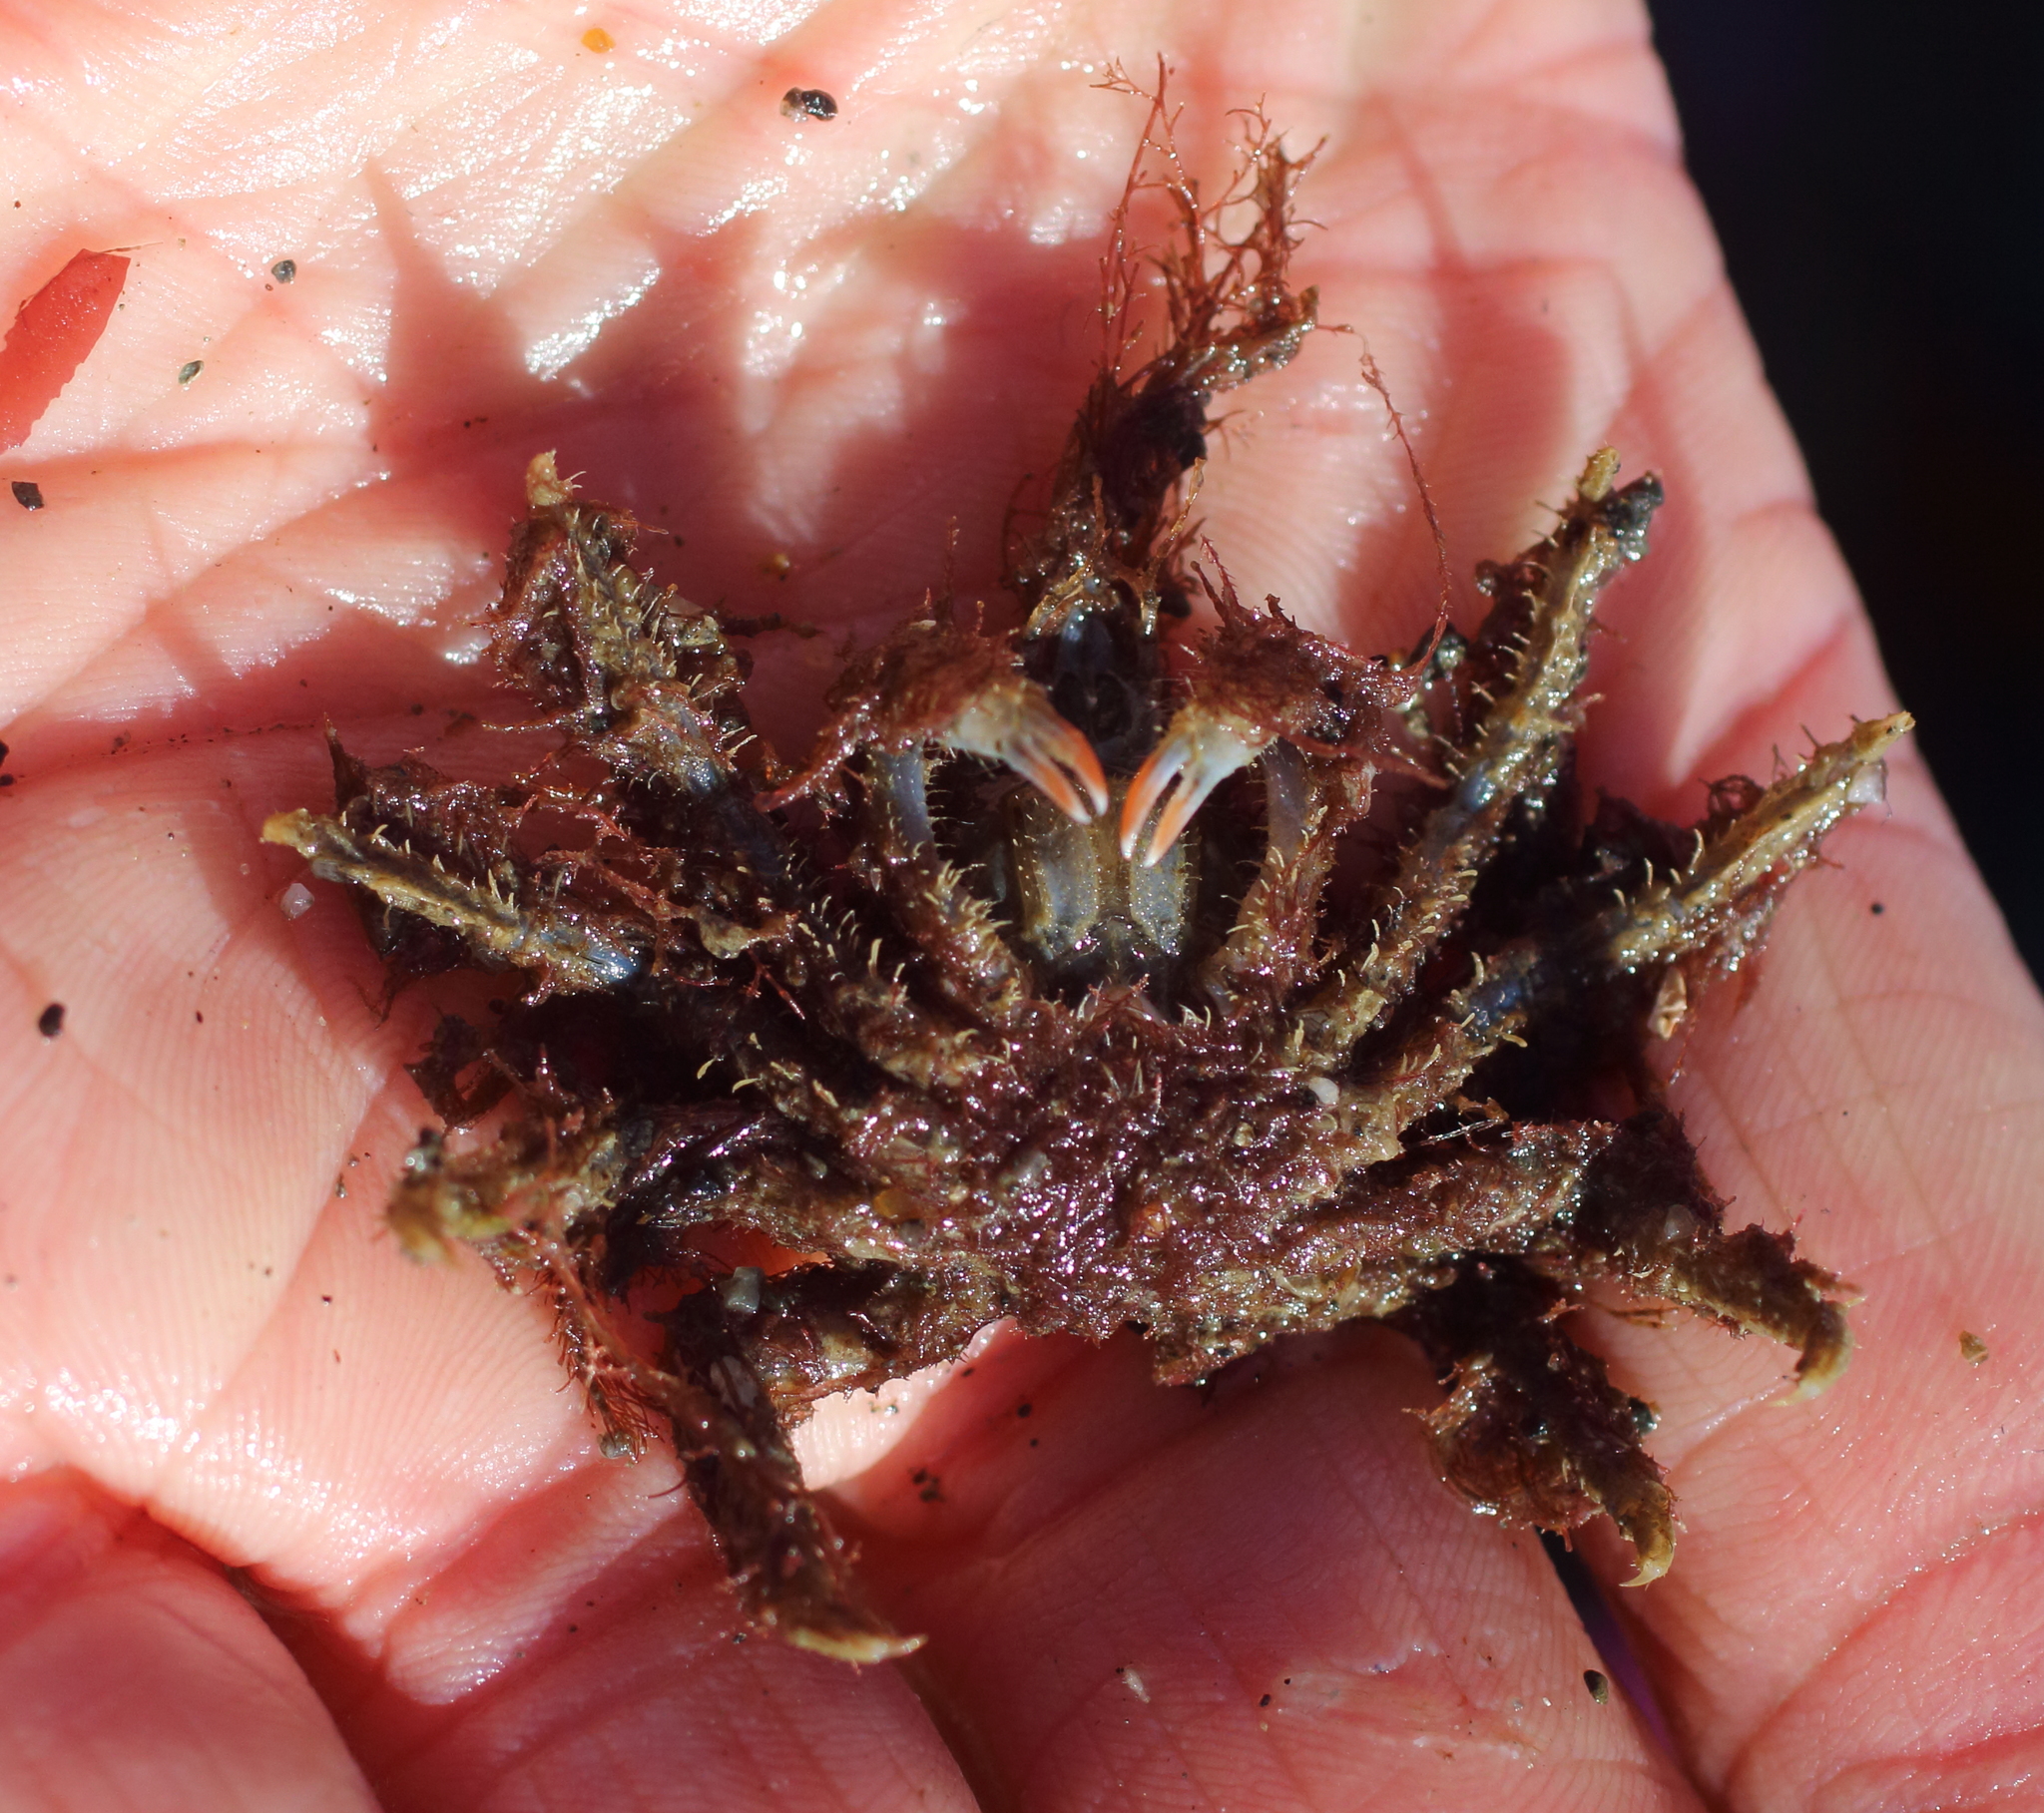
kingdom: Animalia
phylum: Arthropoda
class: Malacostraca
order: Decapoda
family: Oregoniidae
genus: Oregonia
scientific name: Oregonia gracilis
